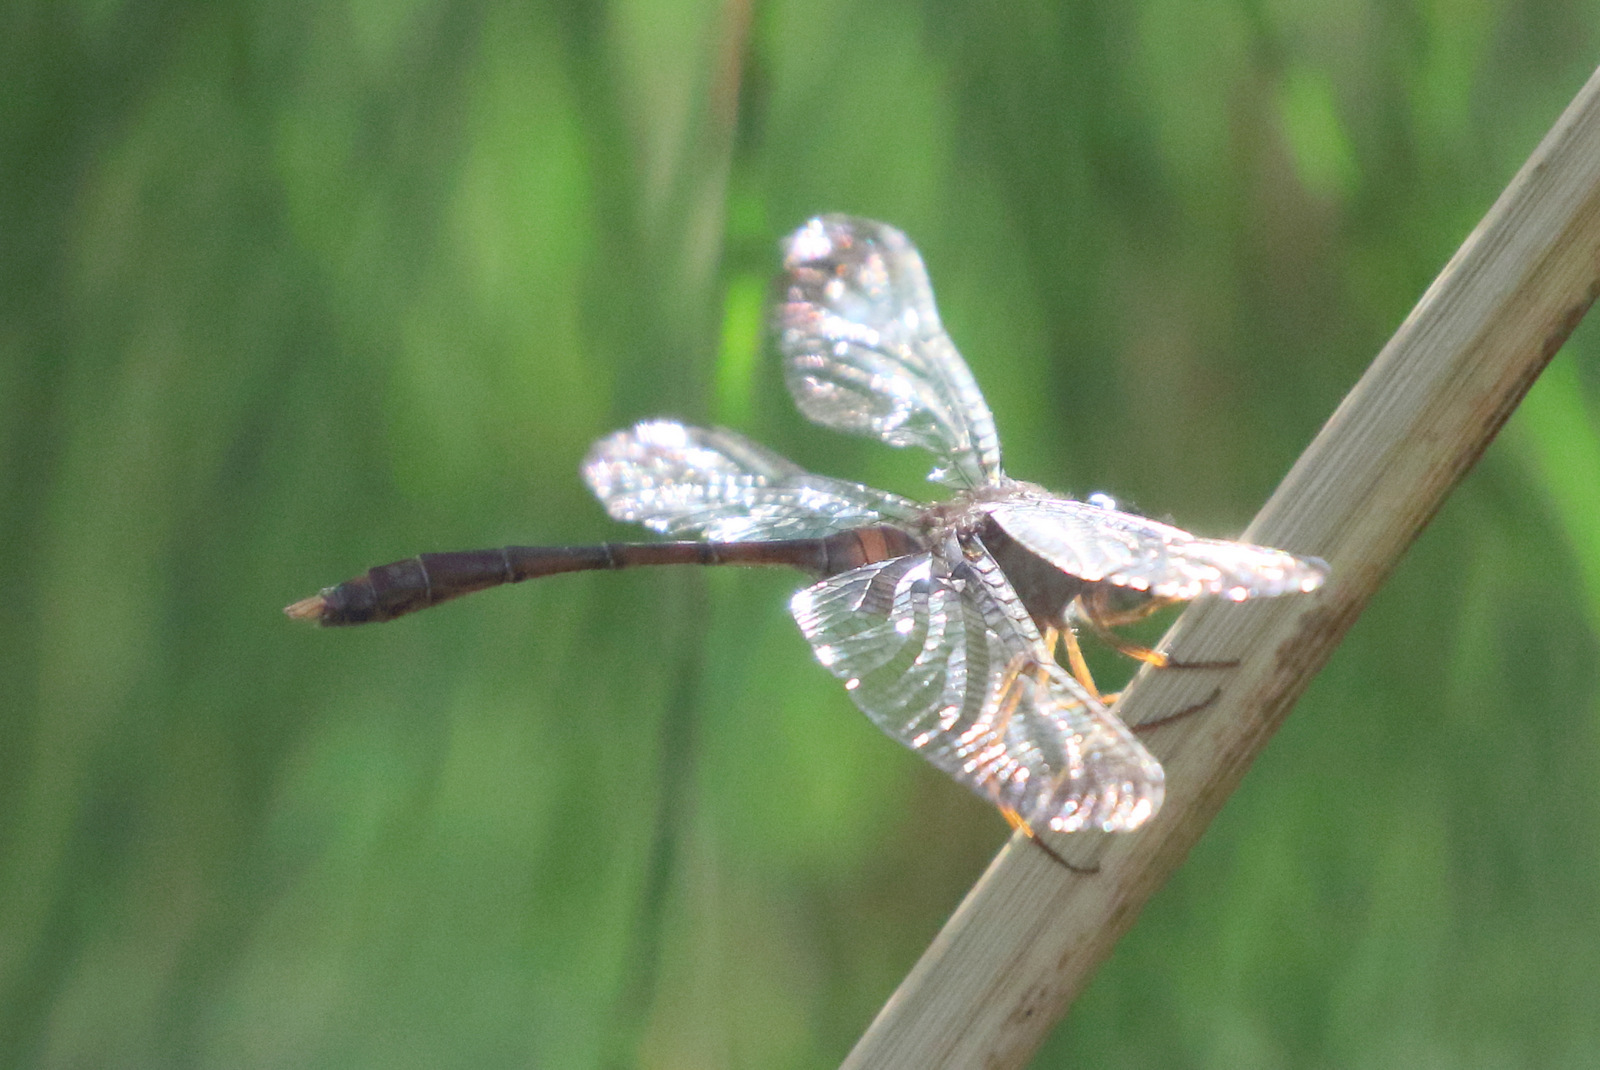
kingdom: Animalia
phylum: Arthropoda
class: Insecta
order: Odonata
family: Libellulidae
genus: Zyxomma
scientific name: Zyxomma elgneri
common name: Short-tailed duskdarter
